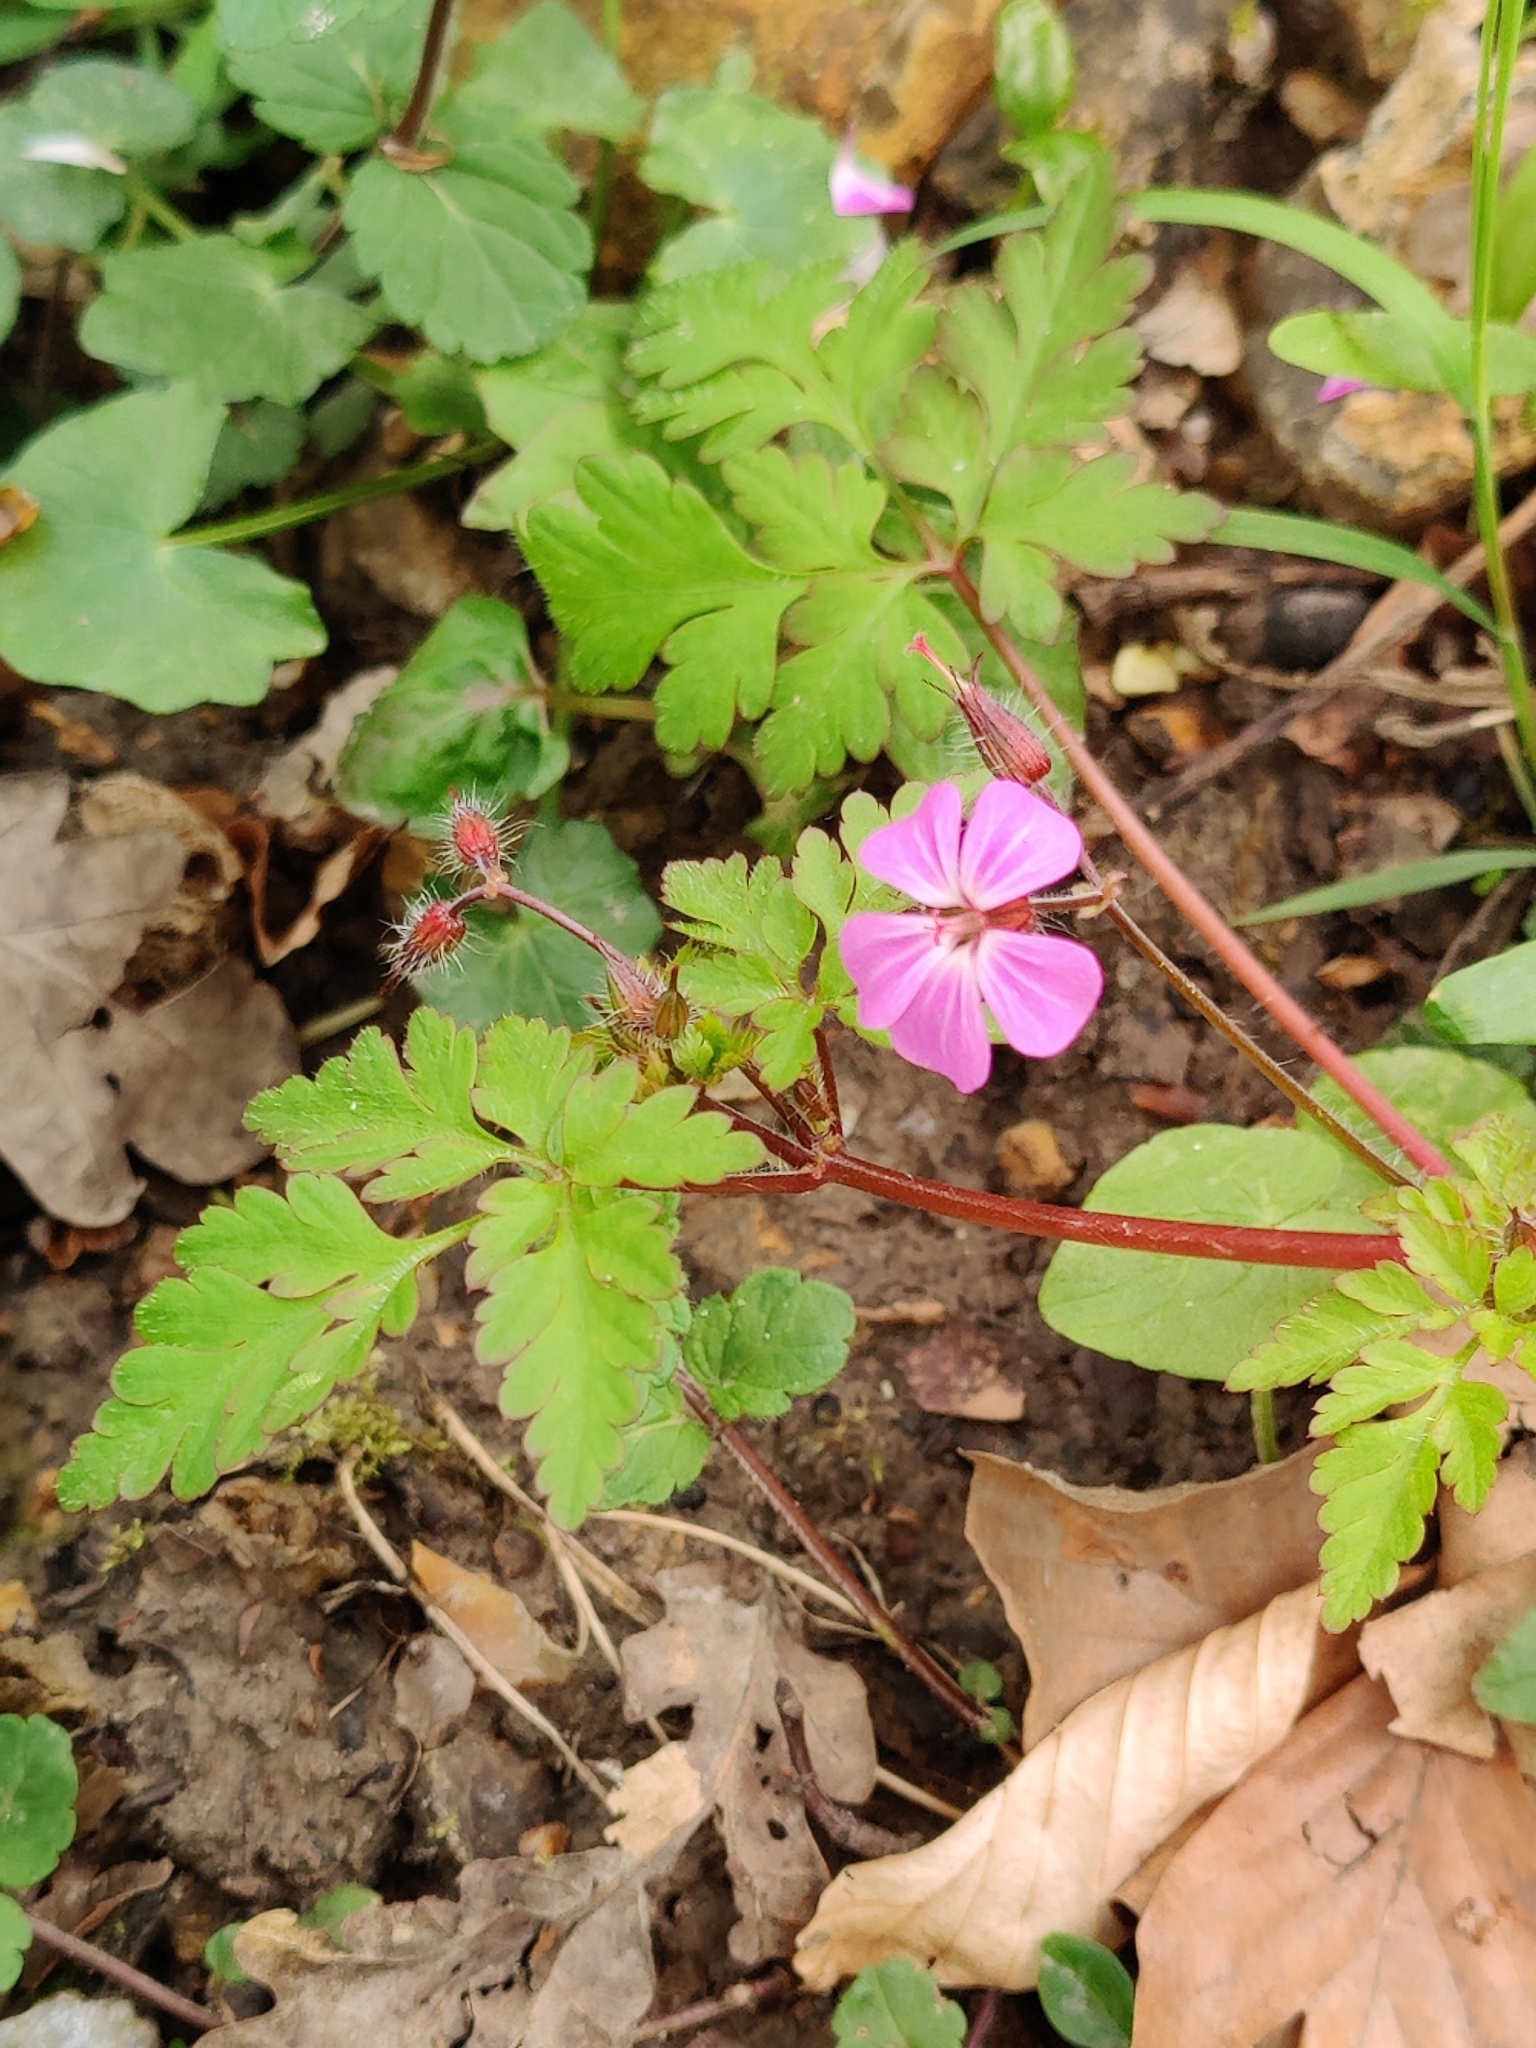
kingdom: Plantae
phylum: Tracheophyta
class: Magnoliopsida
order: Geraniales
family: Geraniaceae
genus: Geranium
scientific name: Geranium robertianum
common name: Herb-robert
